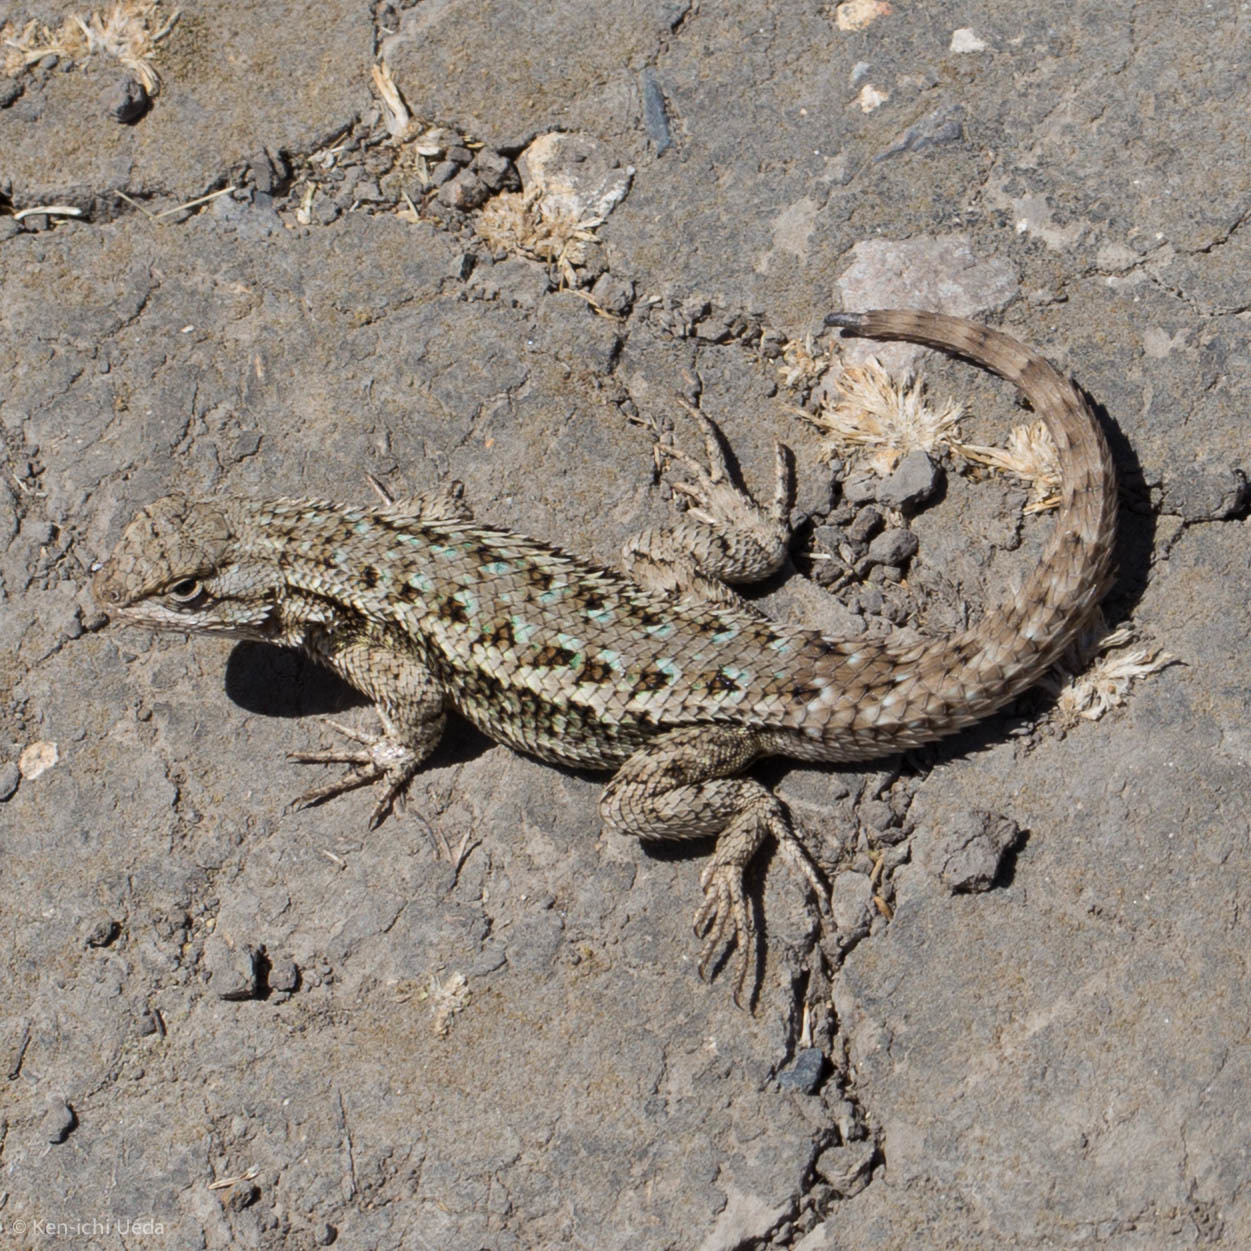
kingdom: Animalia
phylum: Chordata
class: Squamata
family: Phrynosomatidae
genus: Sceloporus
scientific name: Sceloporus occidentalis
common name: Western fence lizard
